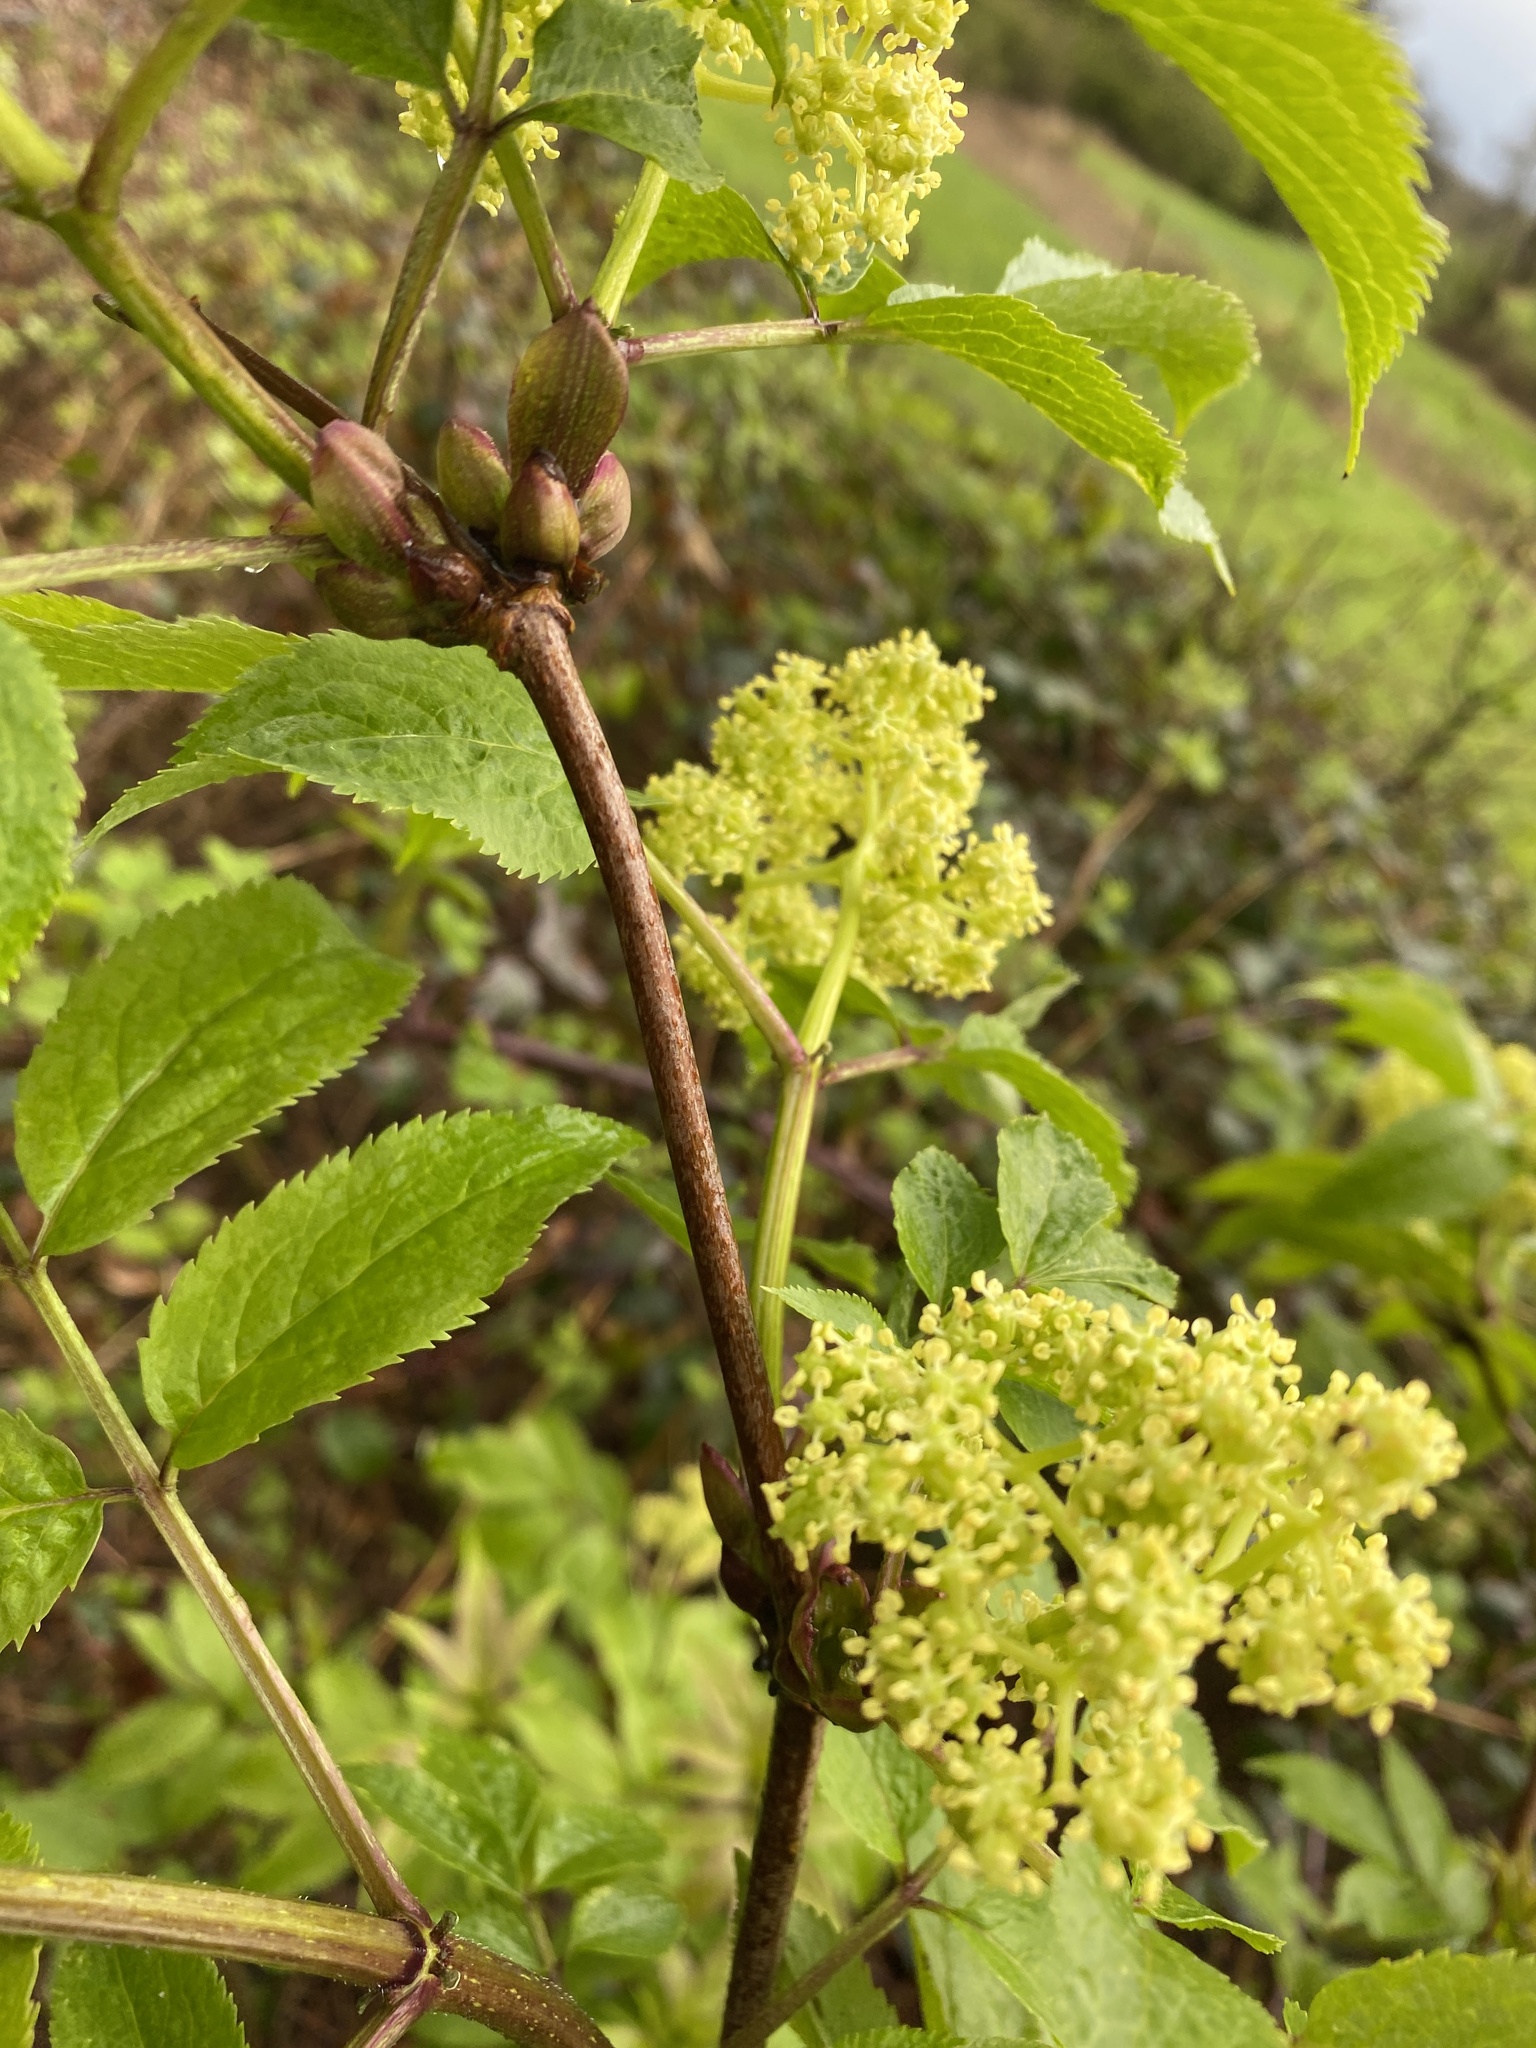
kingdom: Plantae
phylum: Tracheophyta
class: Magnoliopsida
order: Dipsacales
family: Viburnaceae
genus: Sambucus
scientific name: Sambucus racemosa
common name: Red-berried elder
